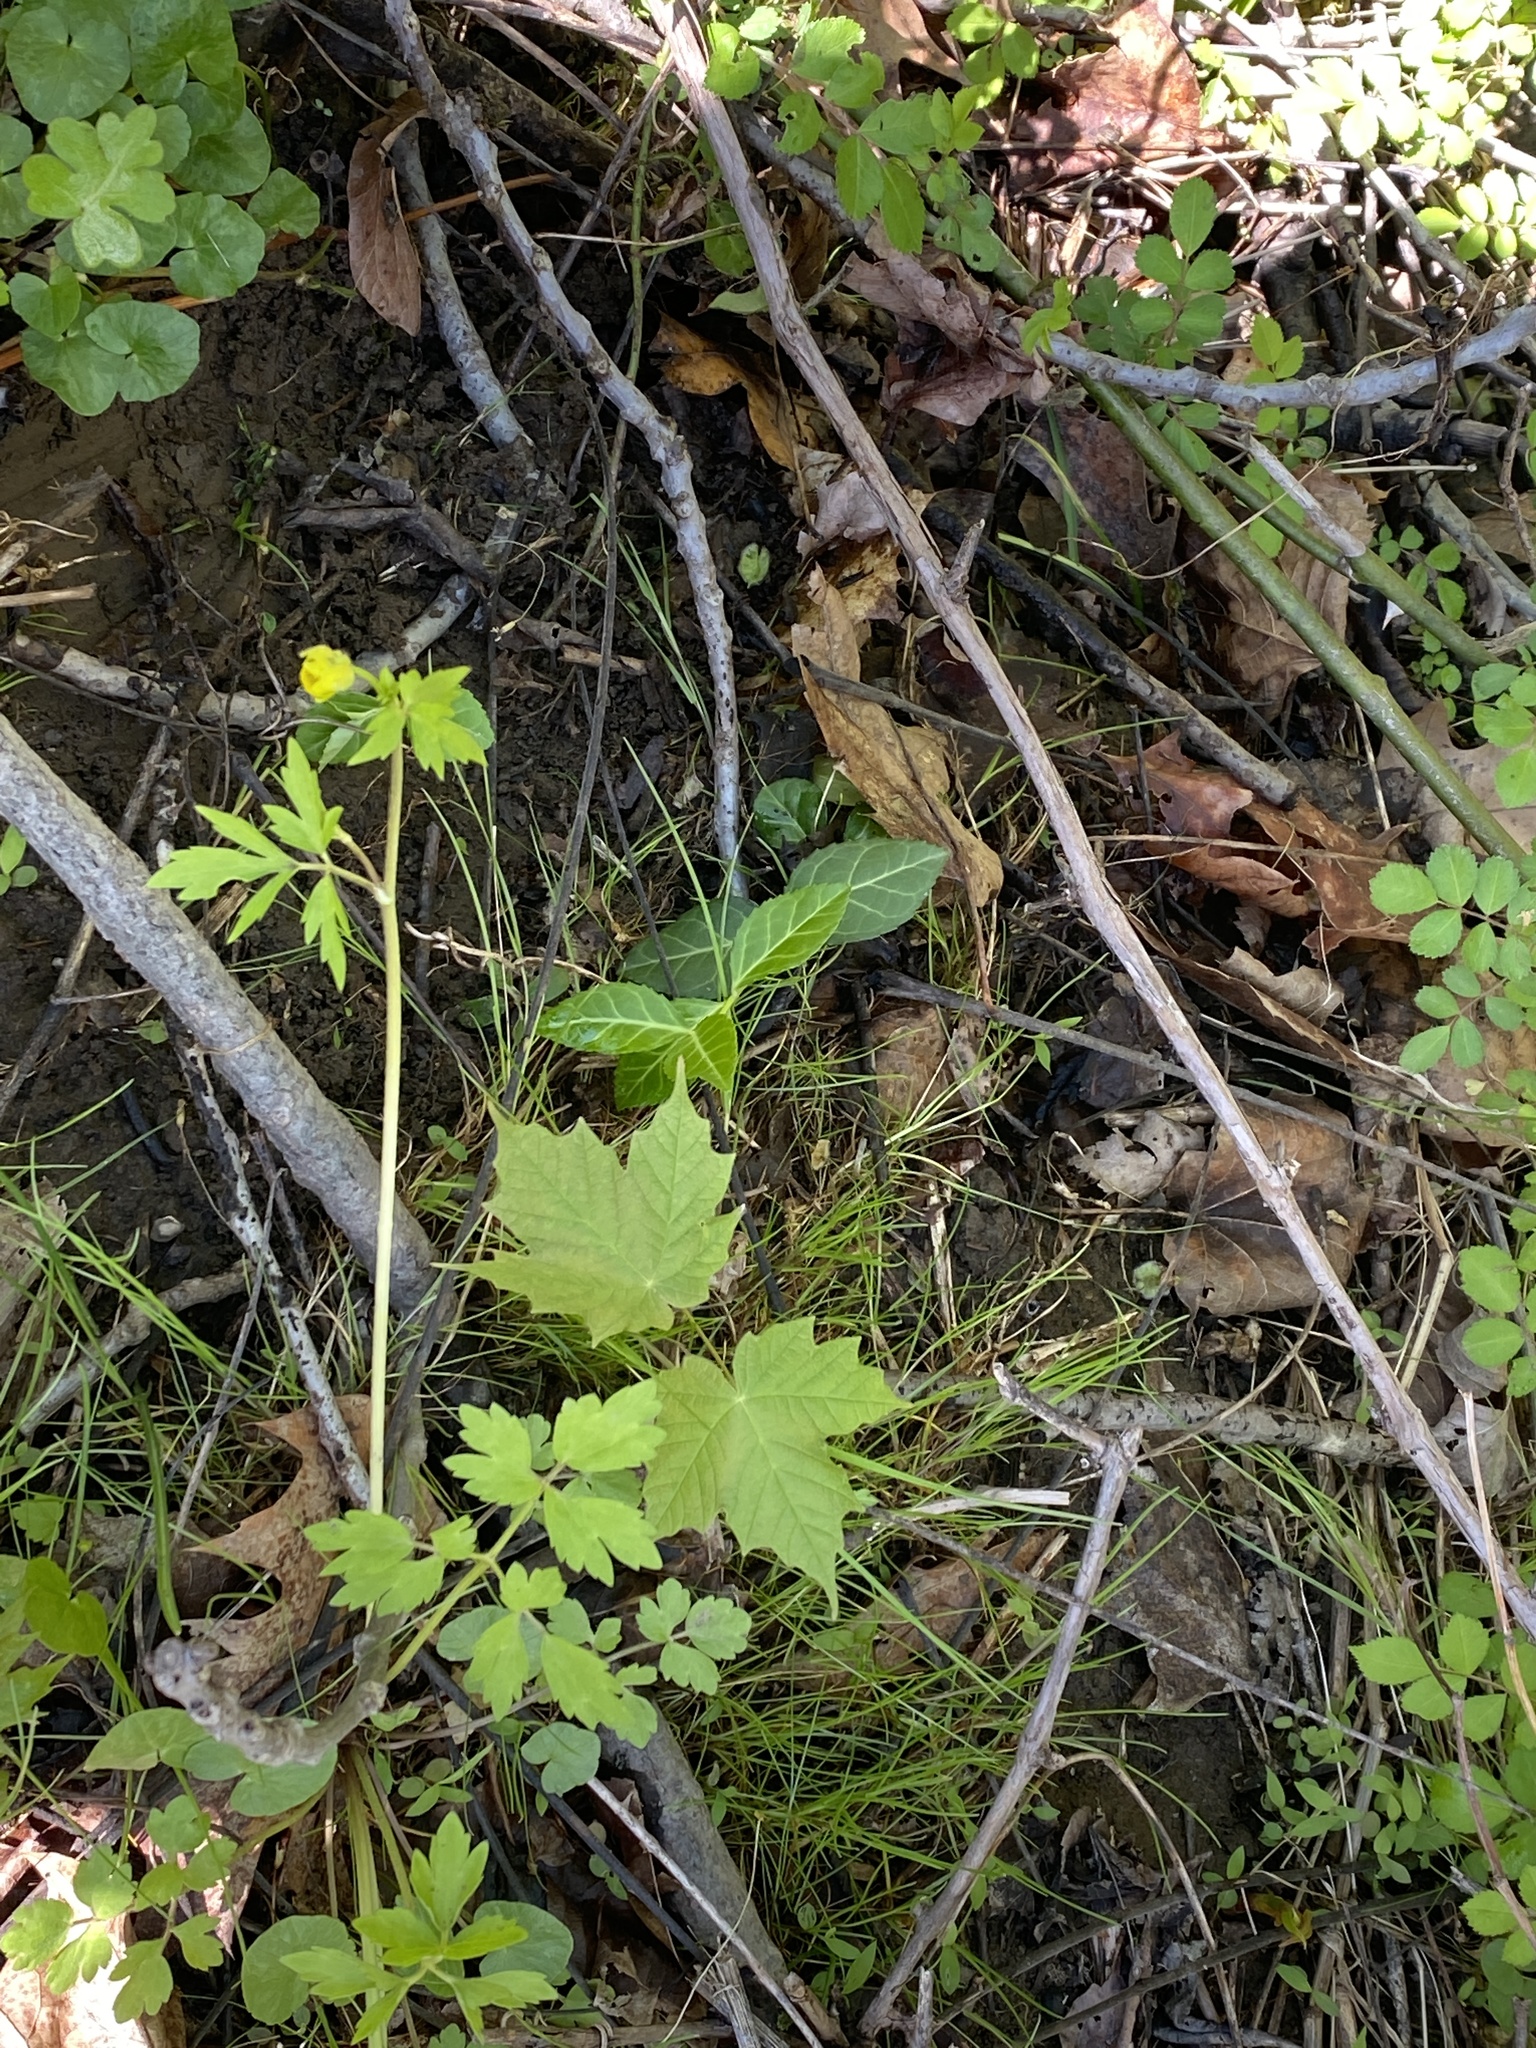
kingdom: Plantae
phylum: Tracheophyta
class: Magnoliopsida
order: Celastrales
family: Celastraceae
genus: Euonymus
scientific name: Euonymus fortunei
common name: Climbing euonymus
